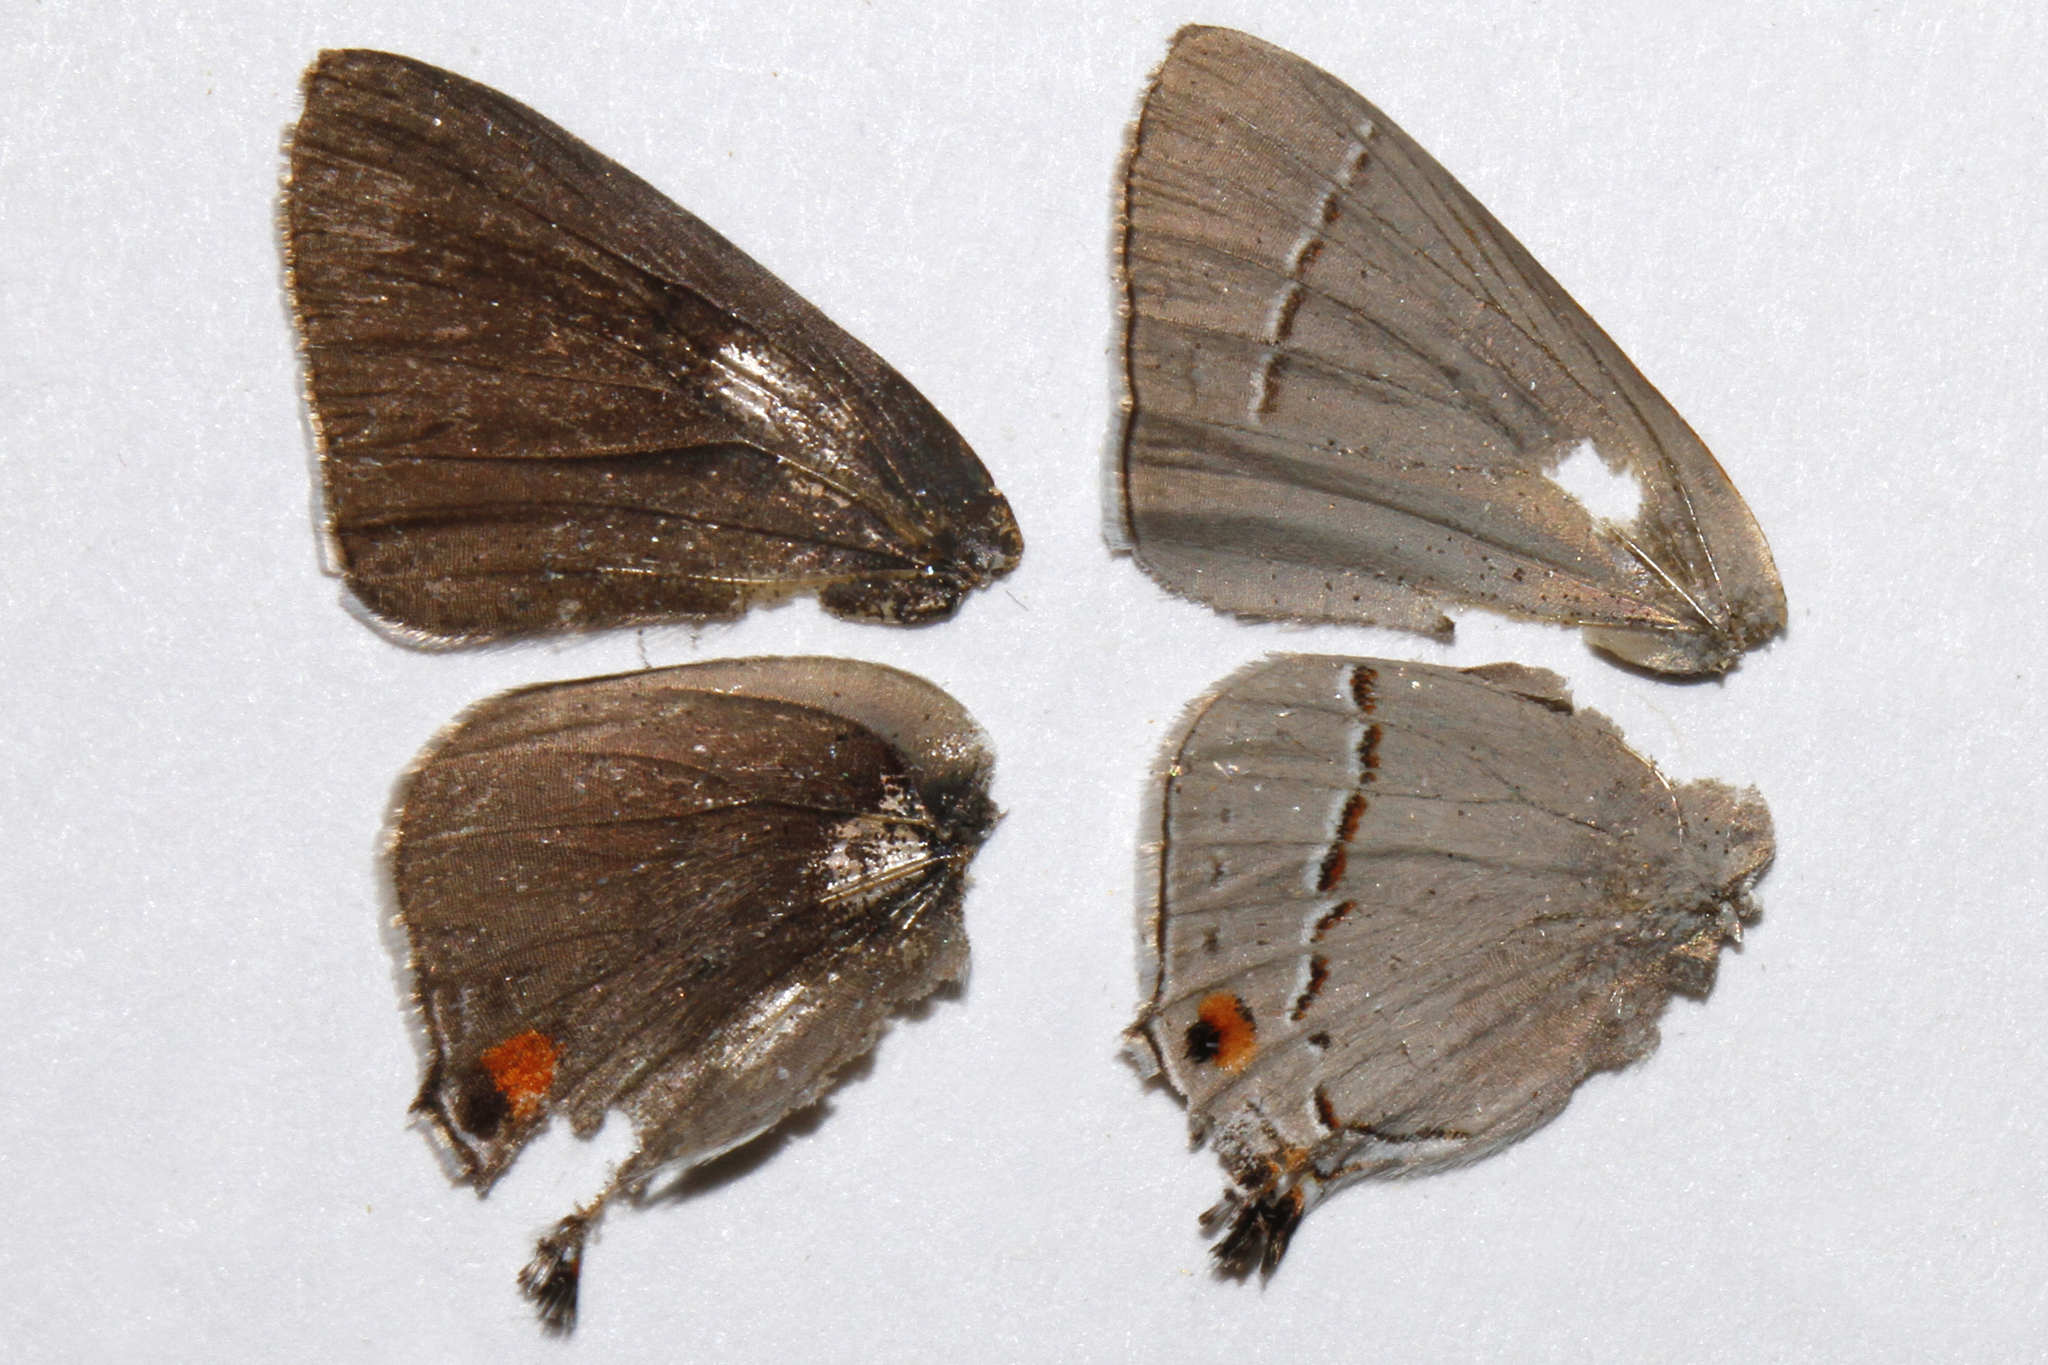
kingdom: Animalia
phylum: Arthropoda
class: Insecta
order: Lepidoptera
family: Lycaenidae
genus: Strymon
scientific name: Strymon melinus
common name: Gray hairstreak
